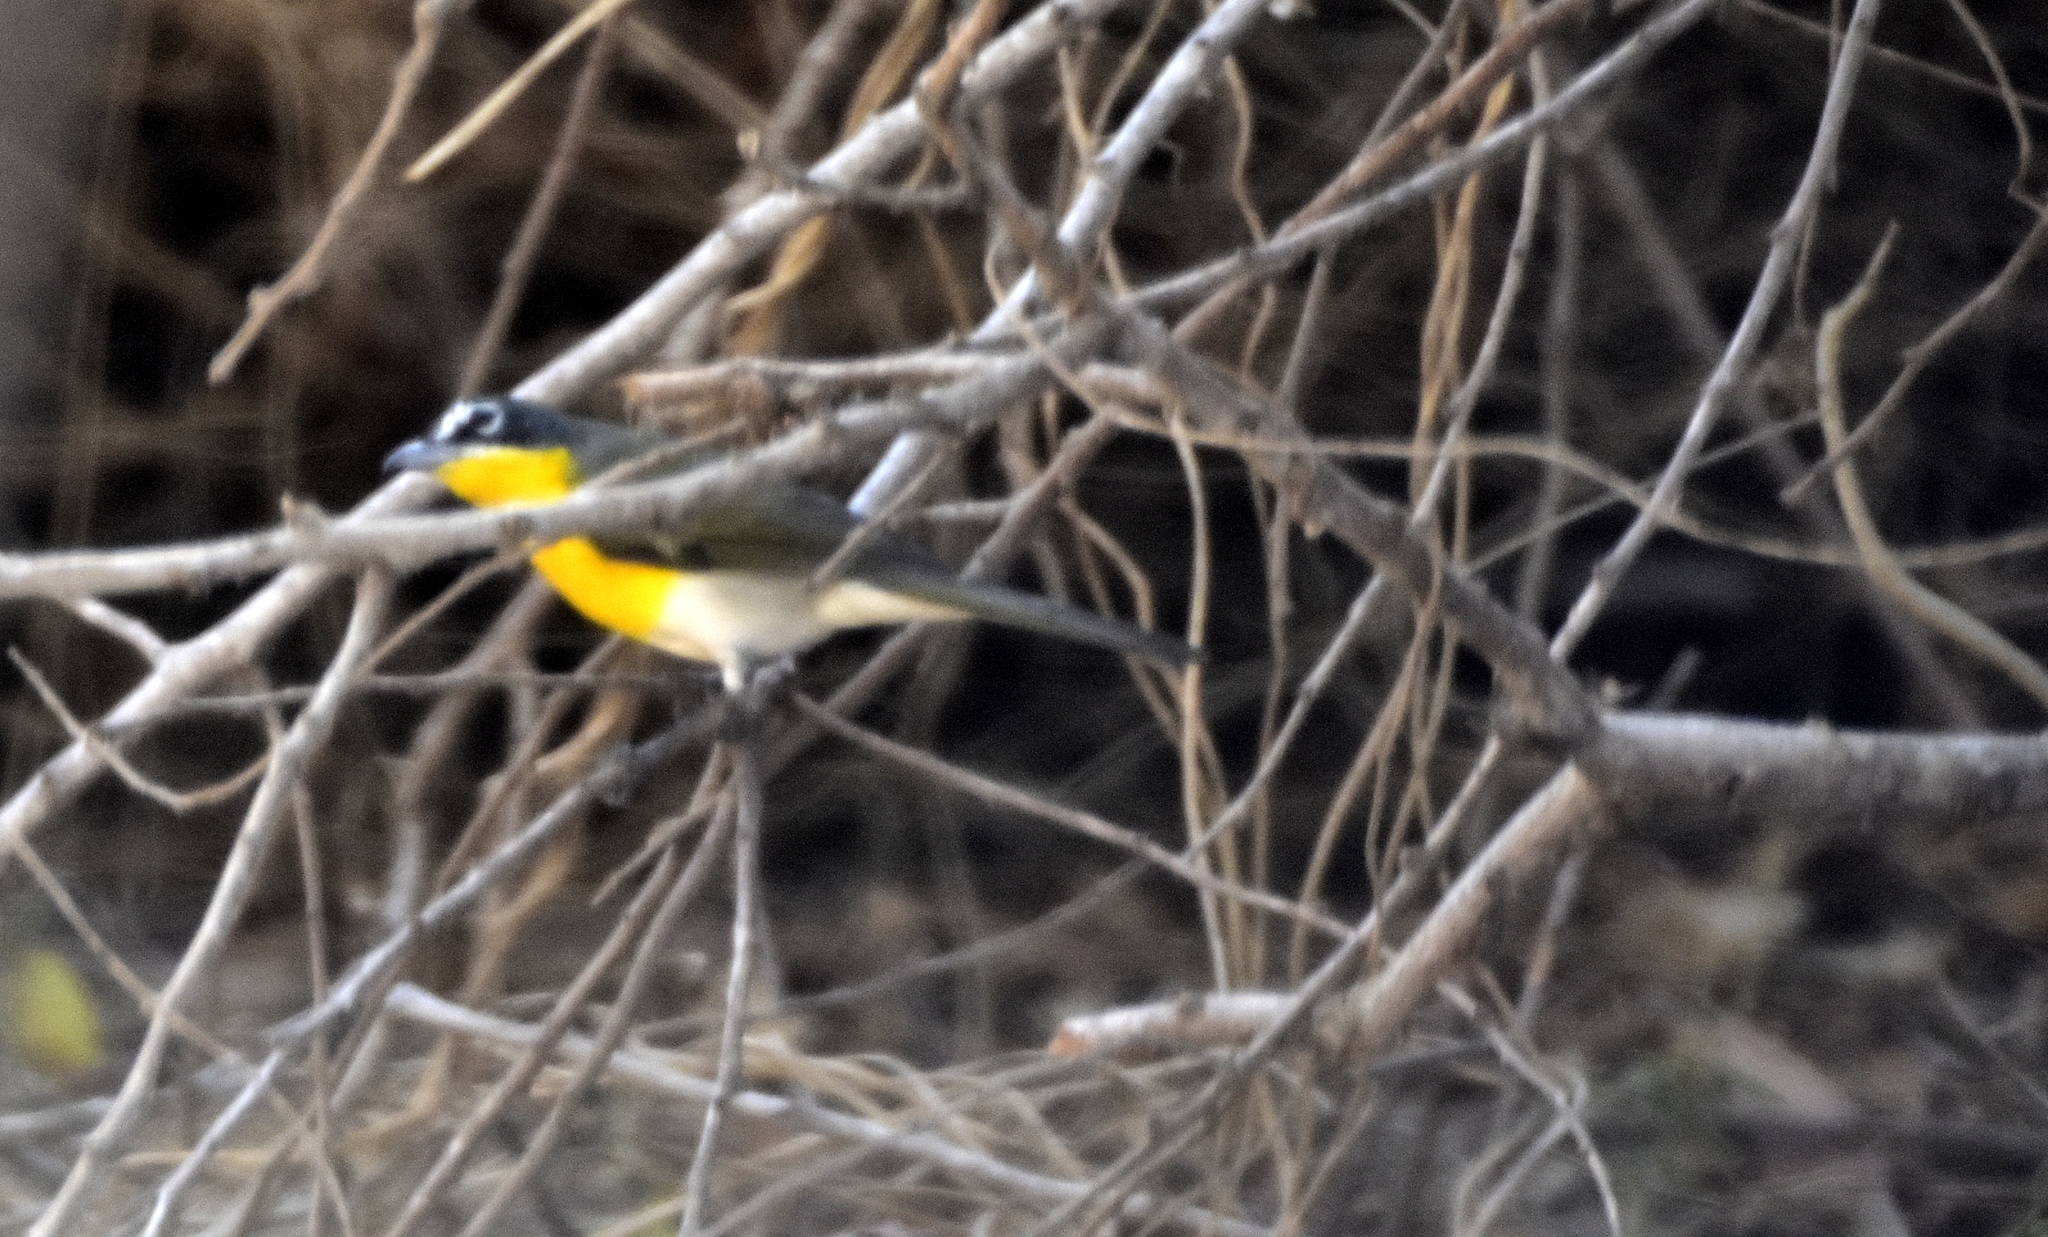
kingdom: Animalia
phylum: Chordata
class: Aves
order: Passeriformes
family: Parulidae
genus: Icteria
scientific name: Icteria virens
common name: Yellow-breasted chat
